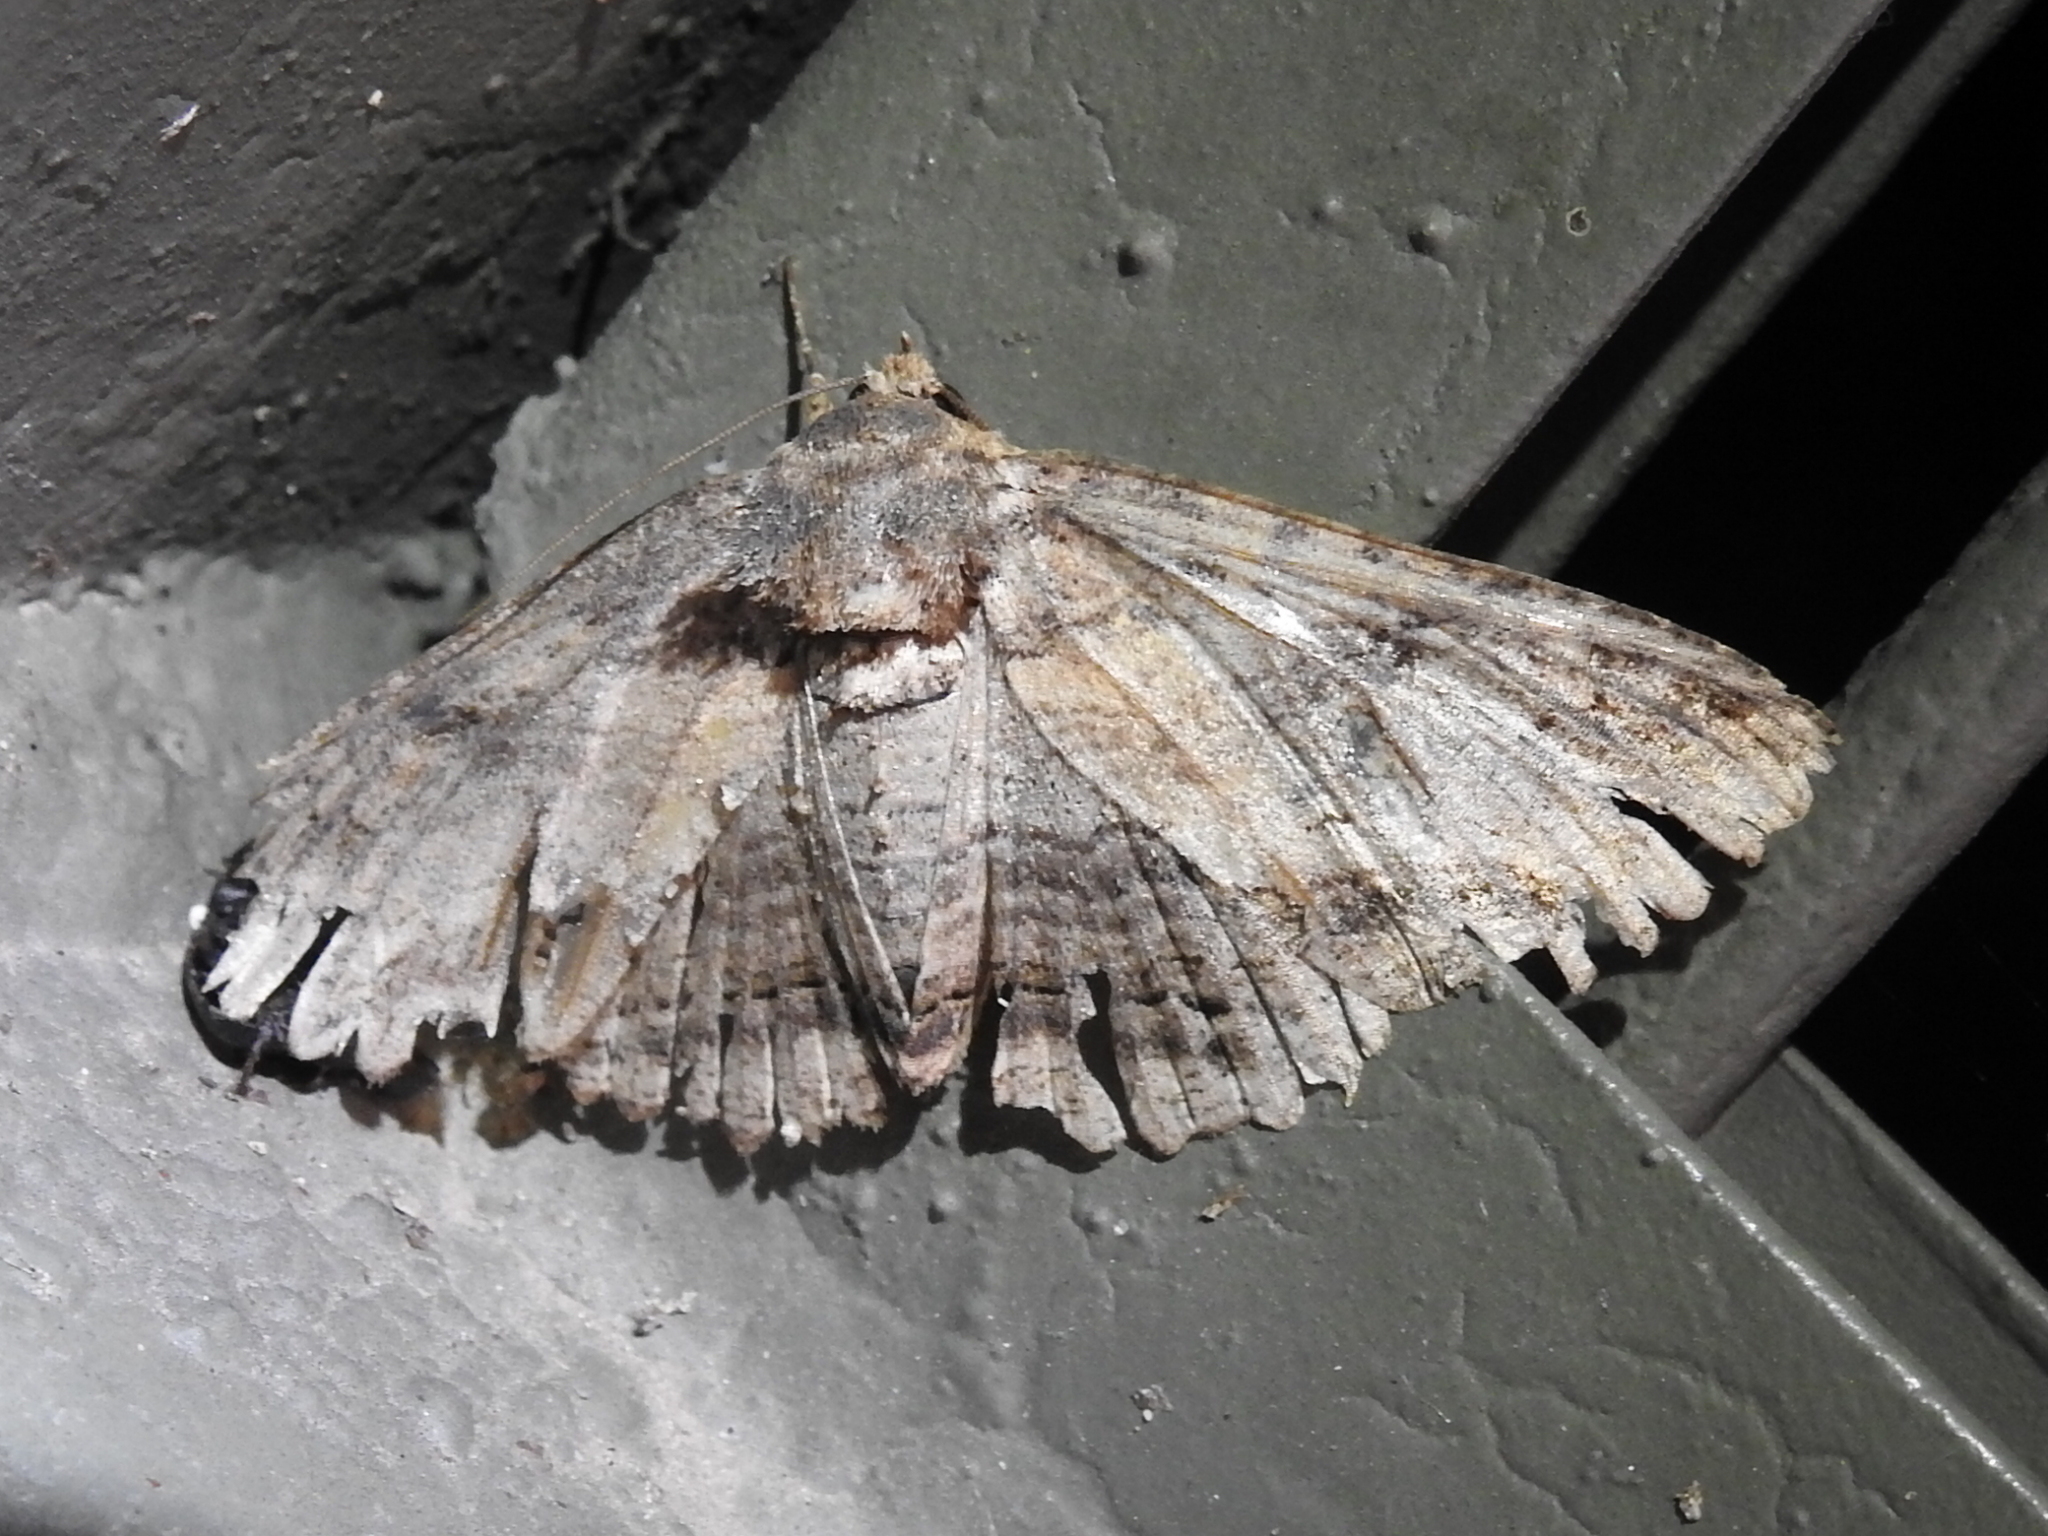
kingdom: Animalia
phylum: Arthropoda
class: Insecta
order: Lepidoptera
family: Erebidae
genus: Zale
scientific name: Zale lunata
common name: Lunate zale moth
